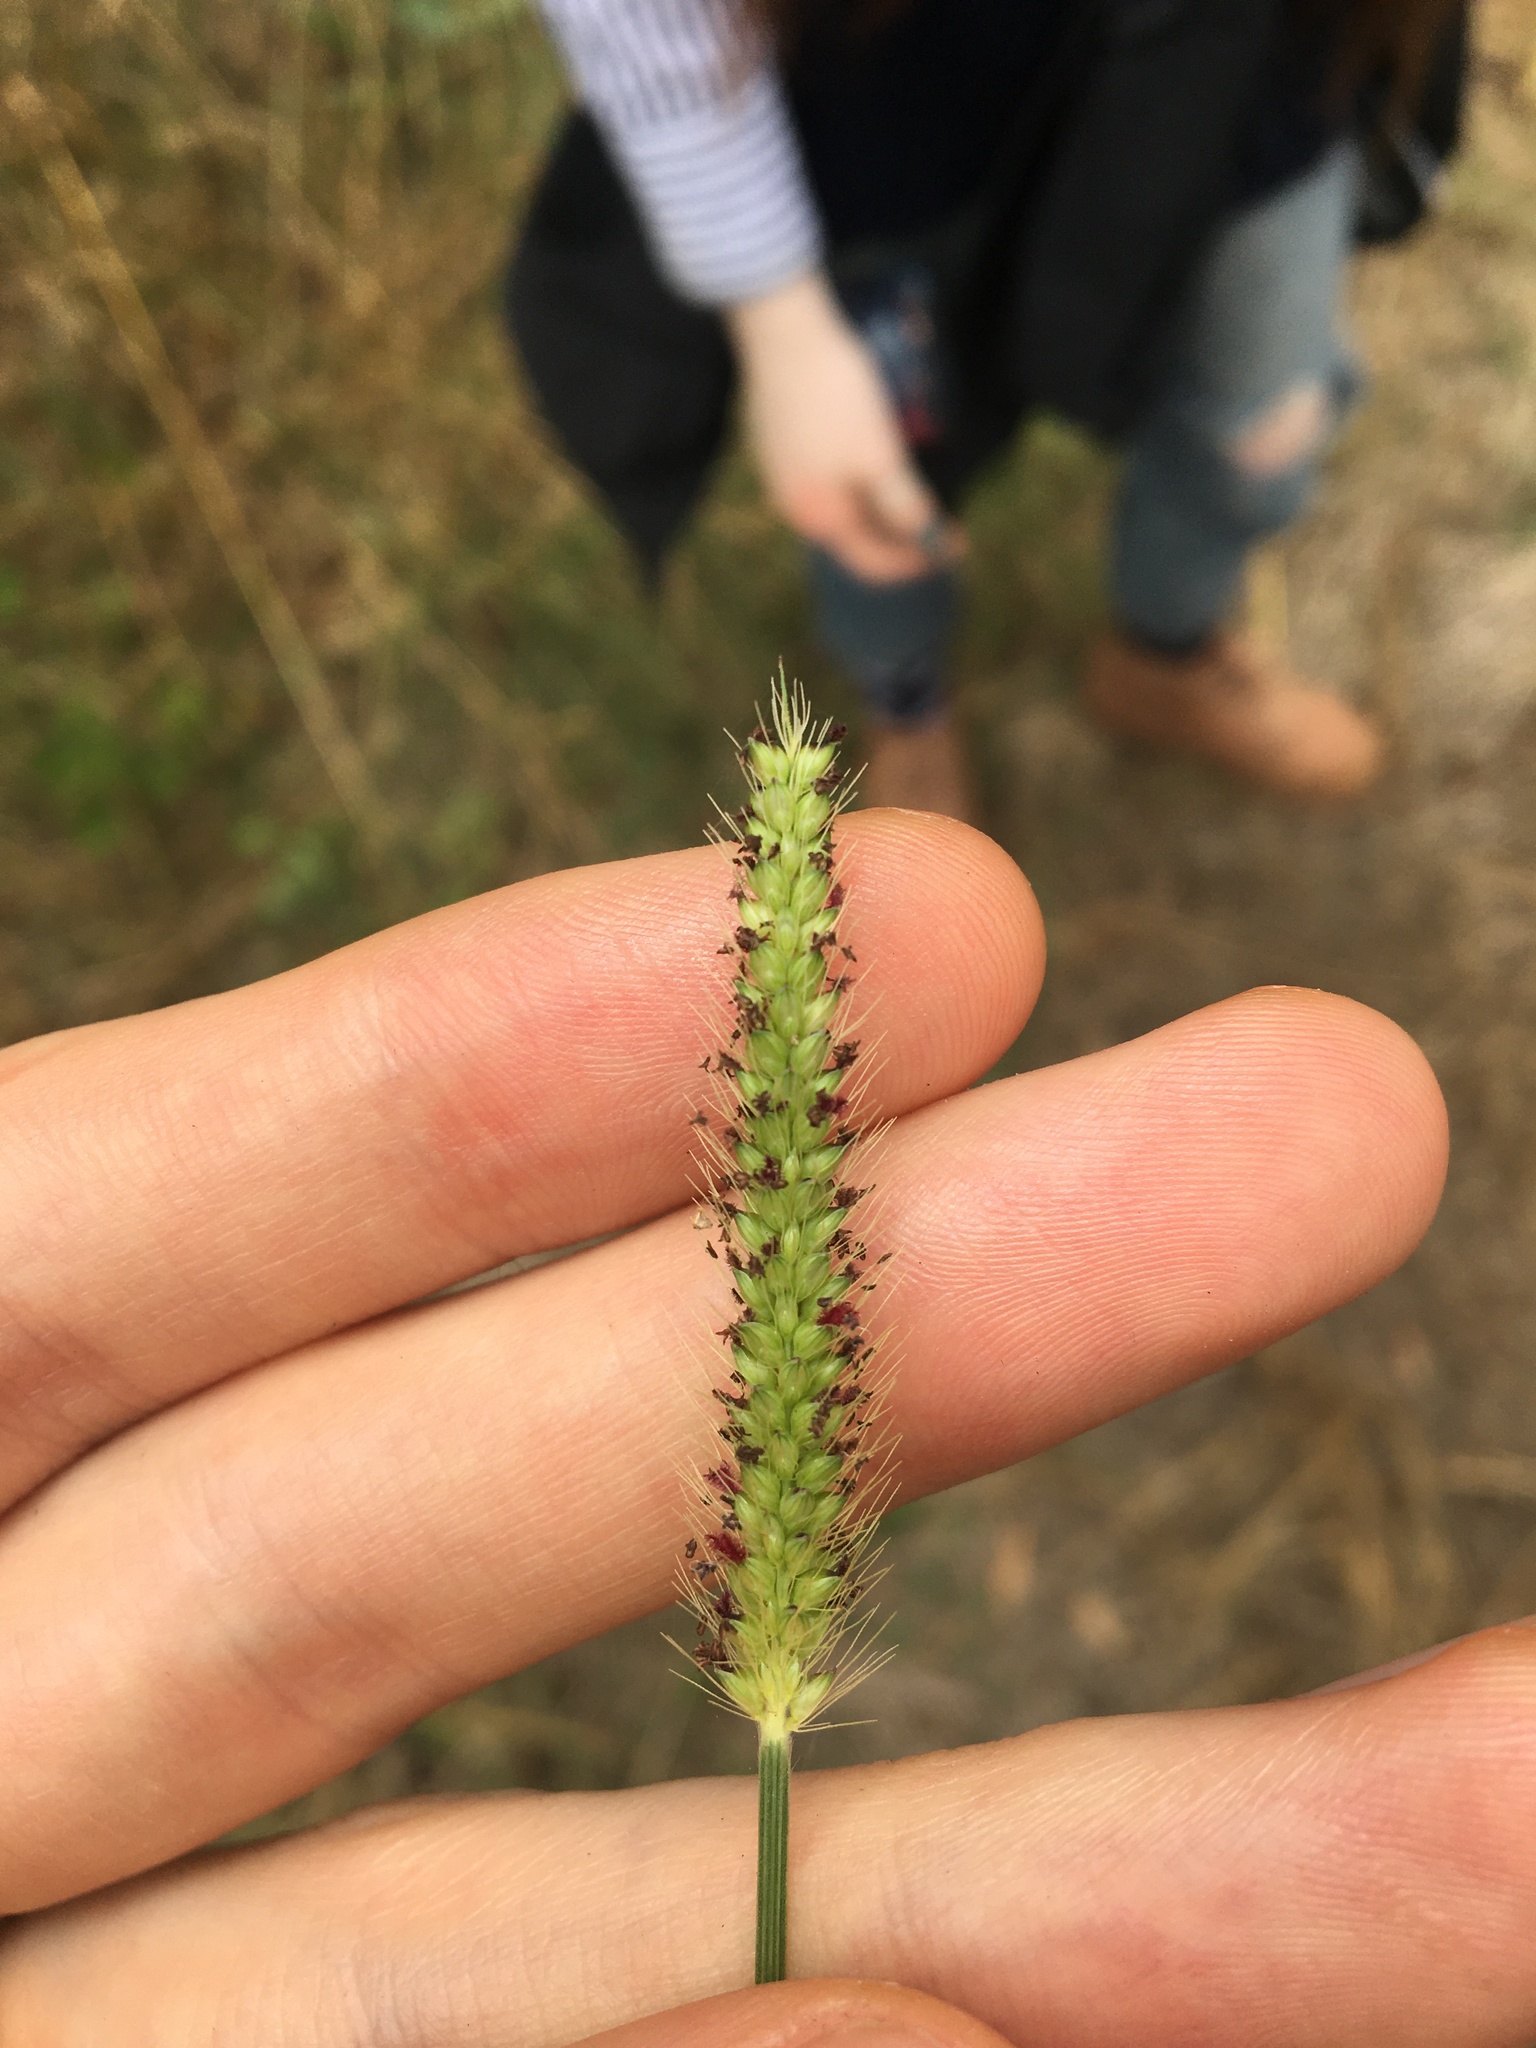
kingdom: Plantae
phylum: Tracheophyta
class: Liliopsida
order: Poales
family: Poaceae
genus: Setaria
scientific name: Setaria parviflora
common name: Knotroot bristle-grass
